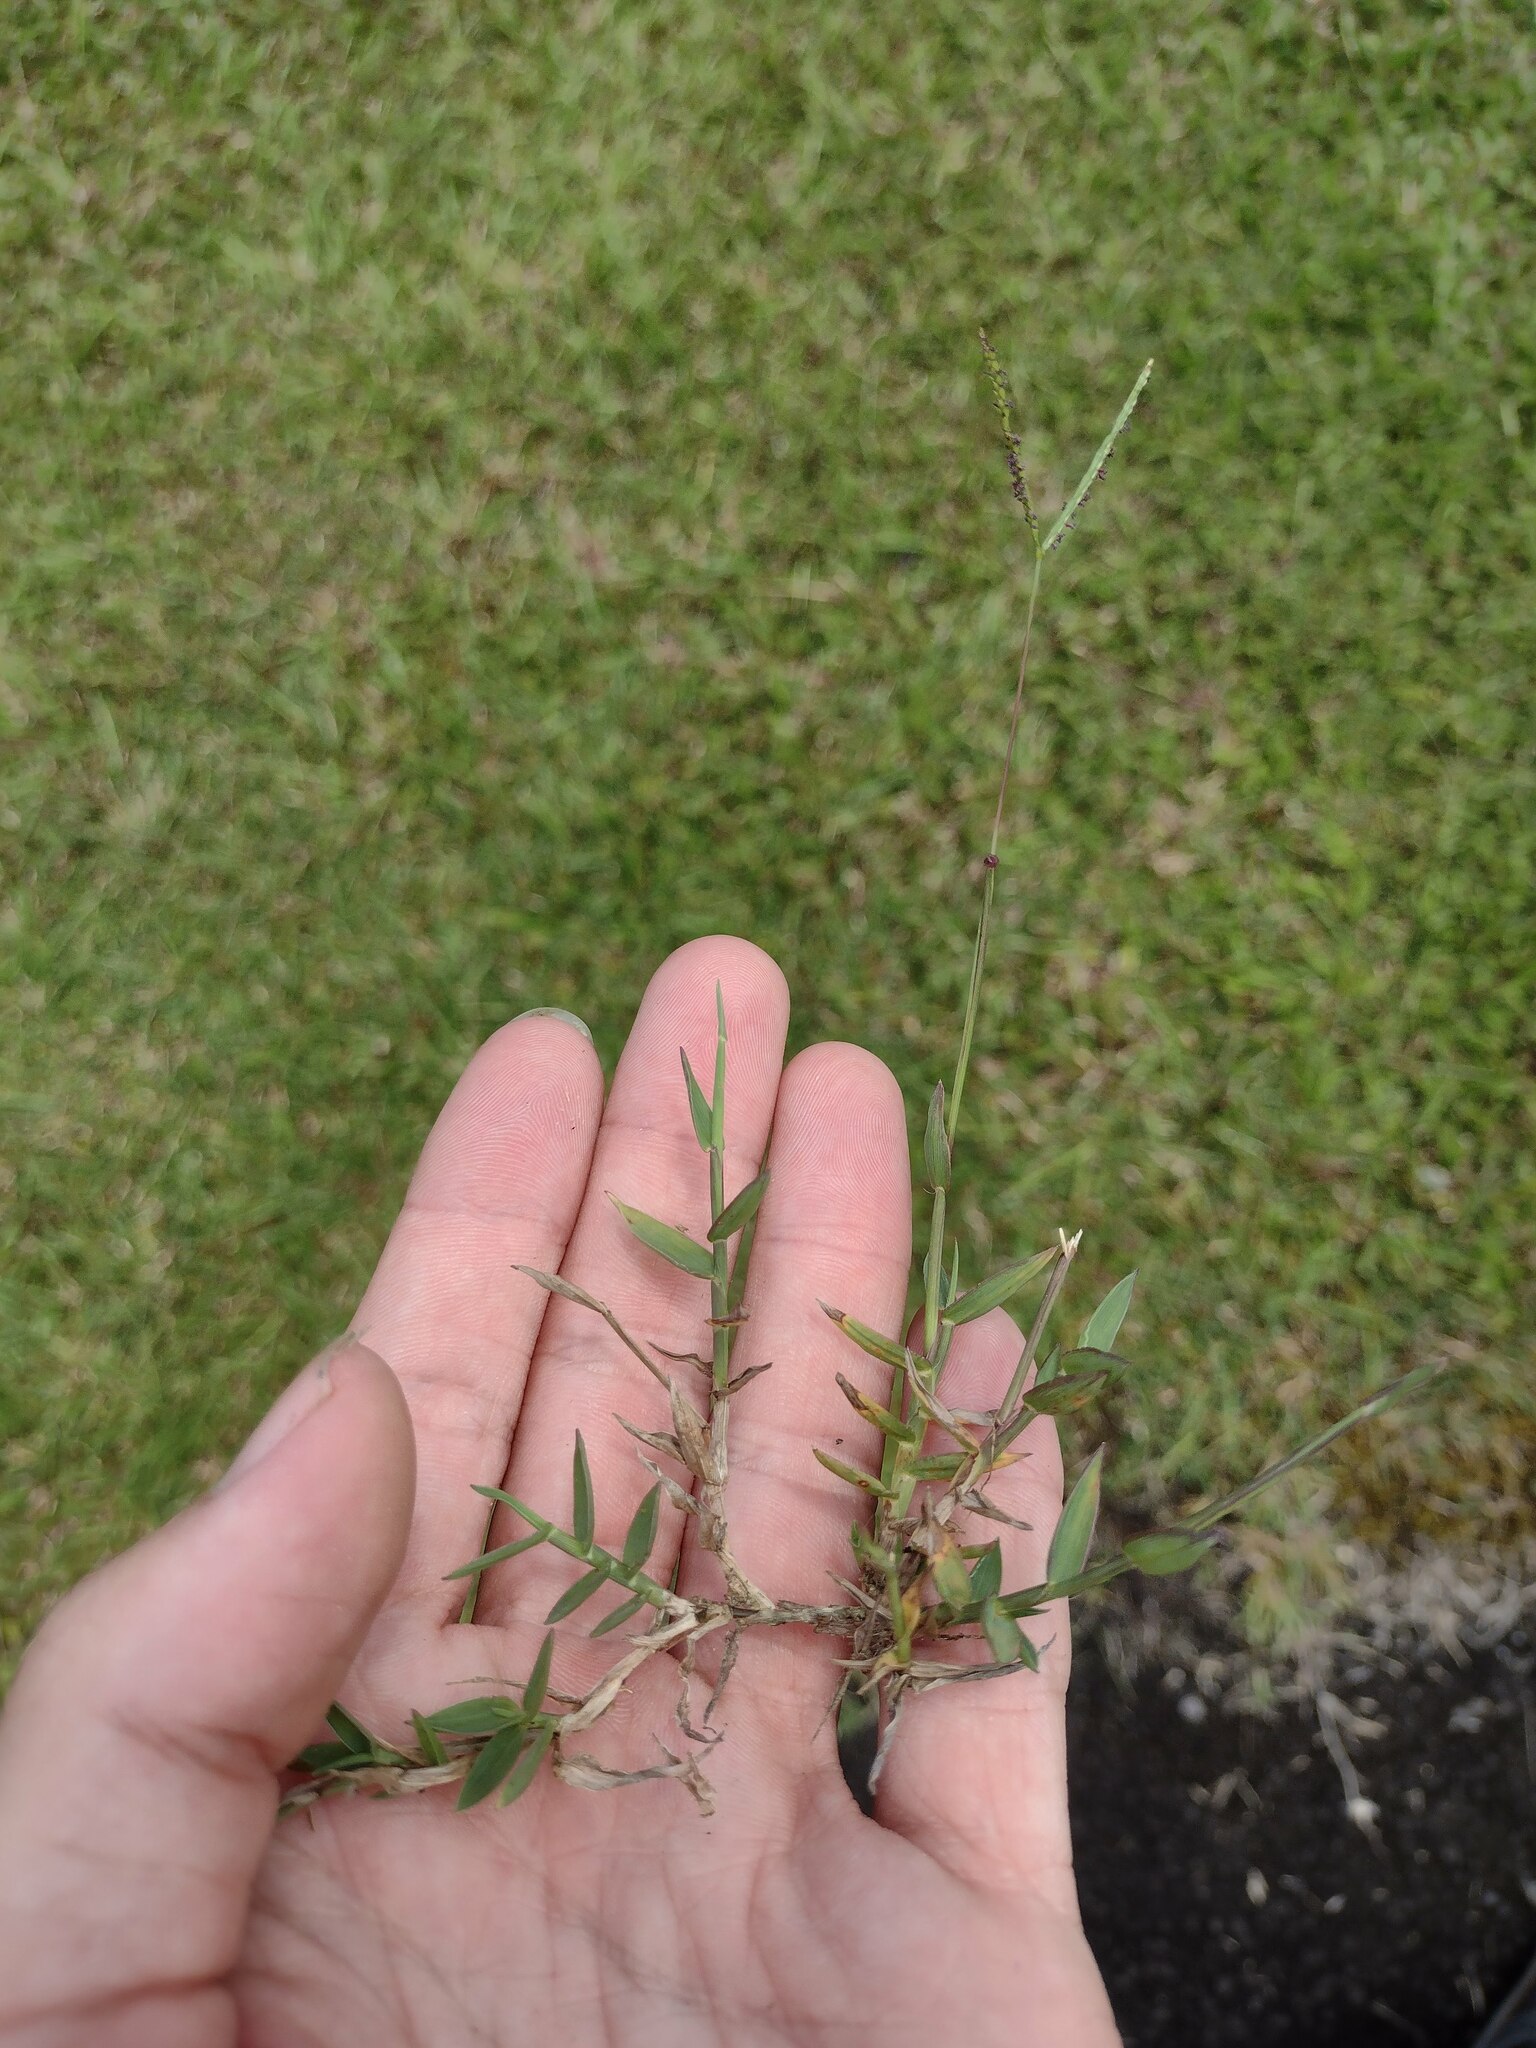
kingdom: Plantae
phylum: Tracheophyta
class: Liliopsida
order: Poales
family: Poaceae
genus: Paspalum
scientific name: Paspalum distichum
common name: Knotgrass
